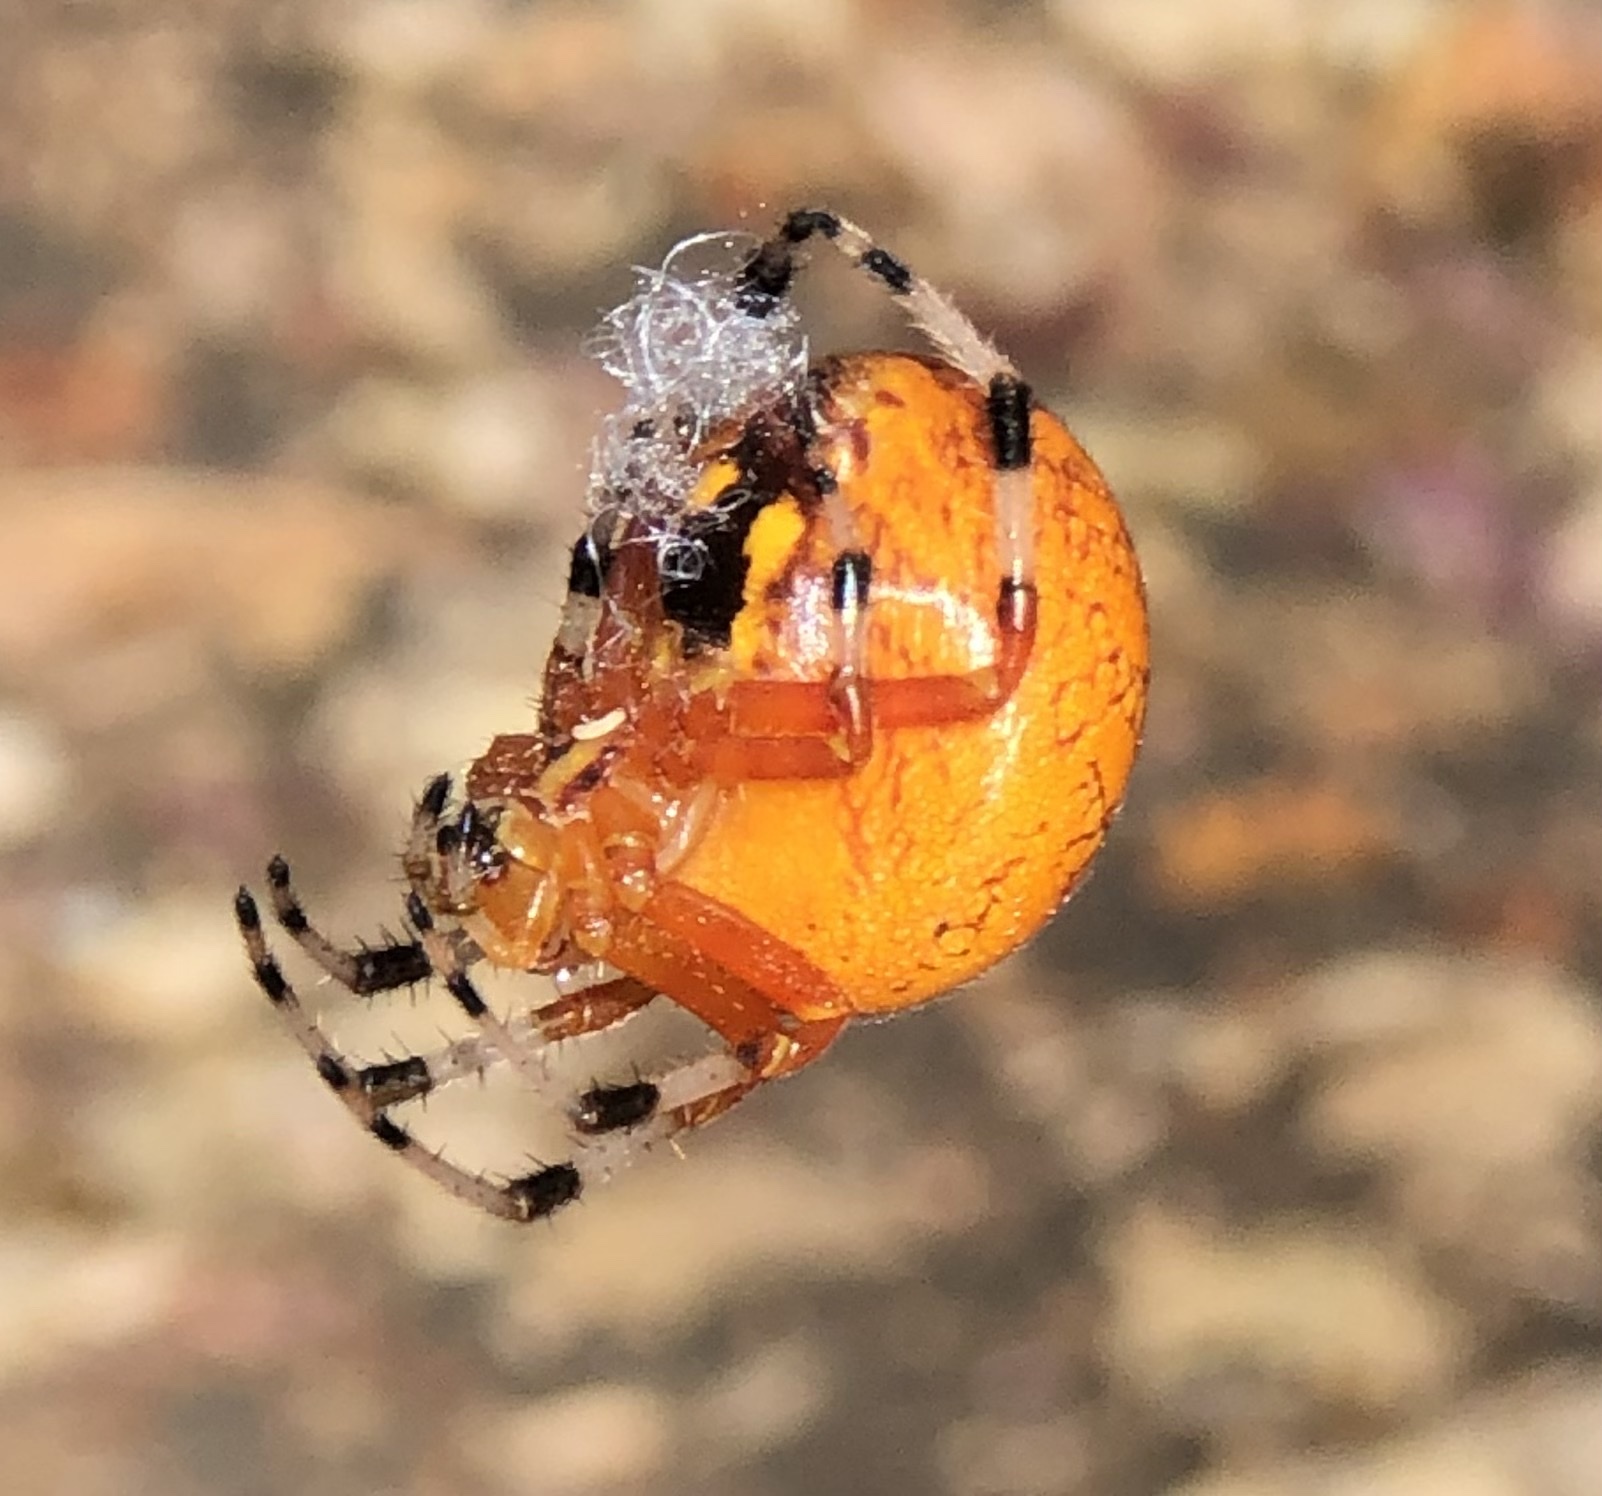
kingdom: Animalia
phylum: Arthropoda
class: Arachnida
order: Araneae
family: Araneidae
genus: Araneus
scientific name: Araneus marmoreus
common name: Marbled orbweaver
